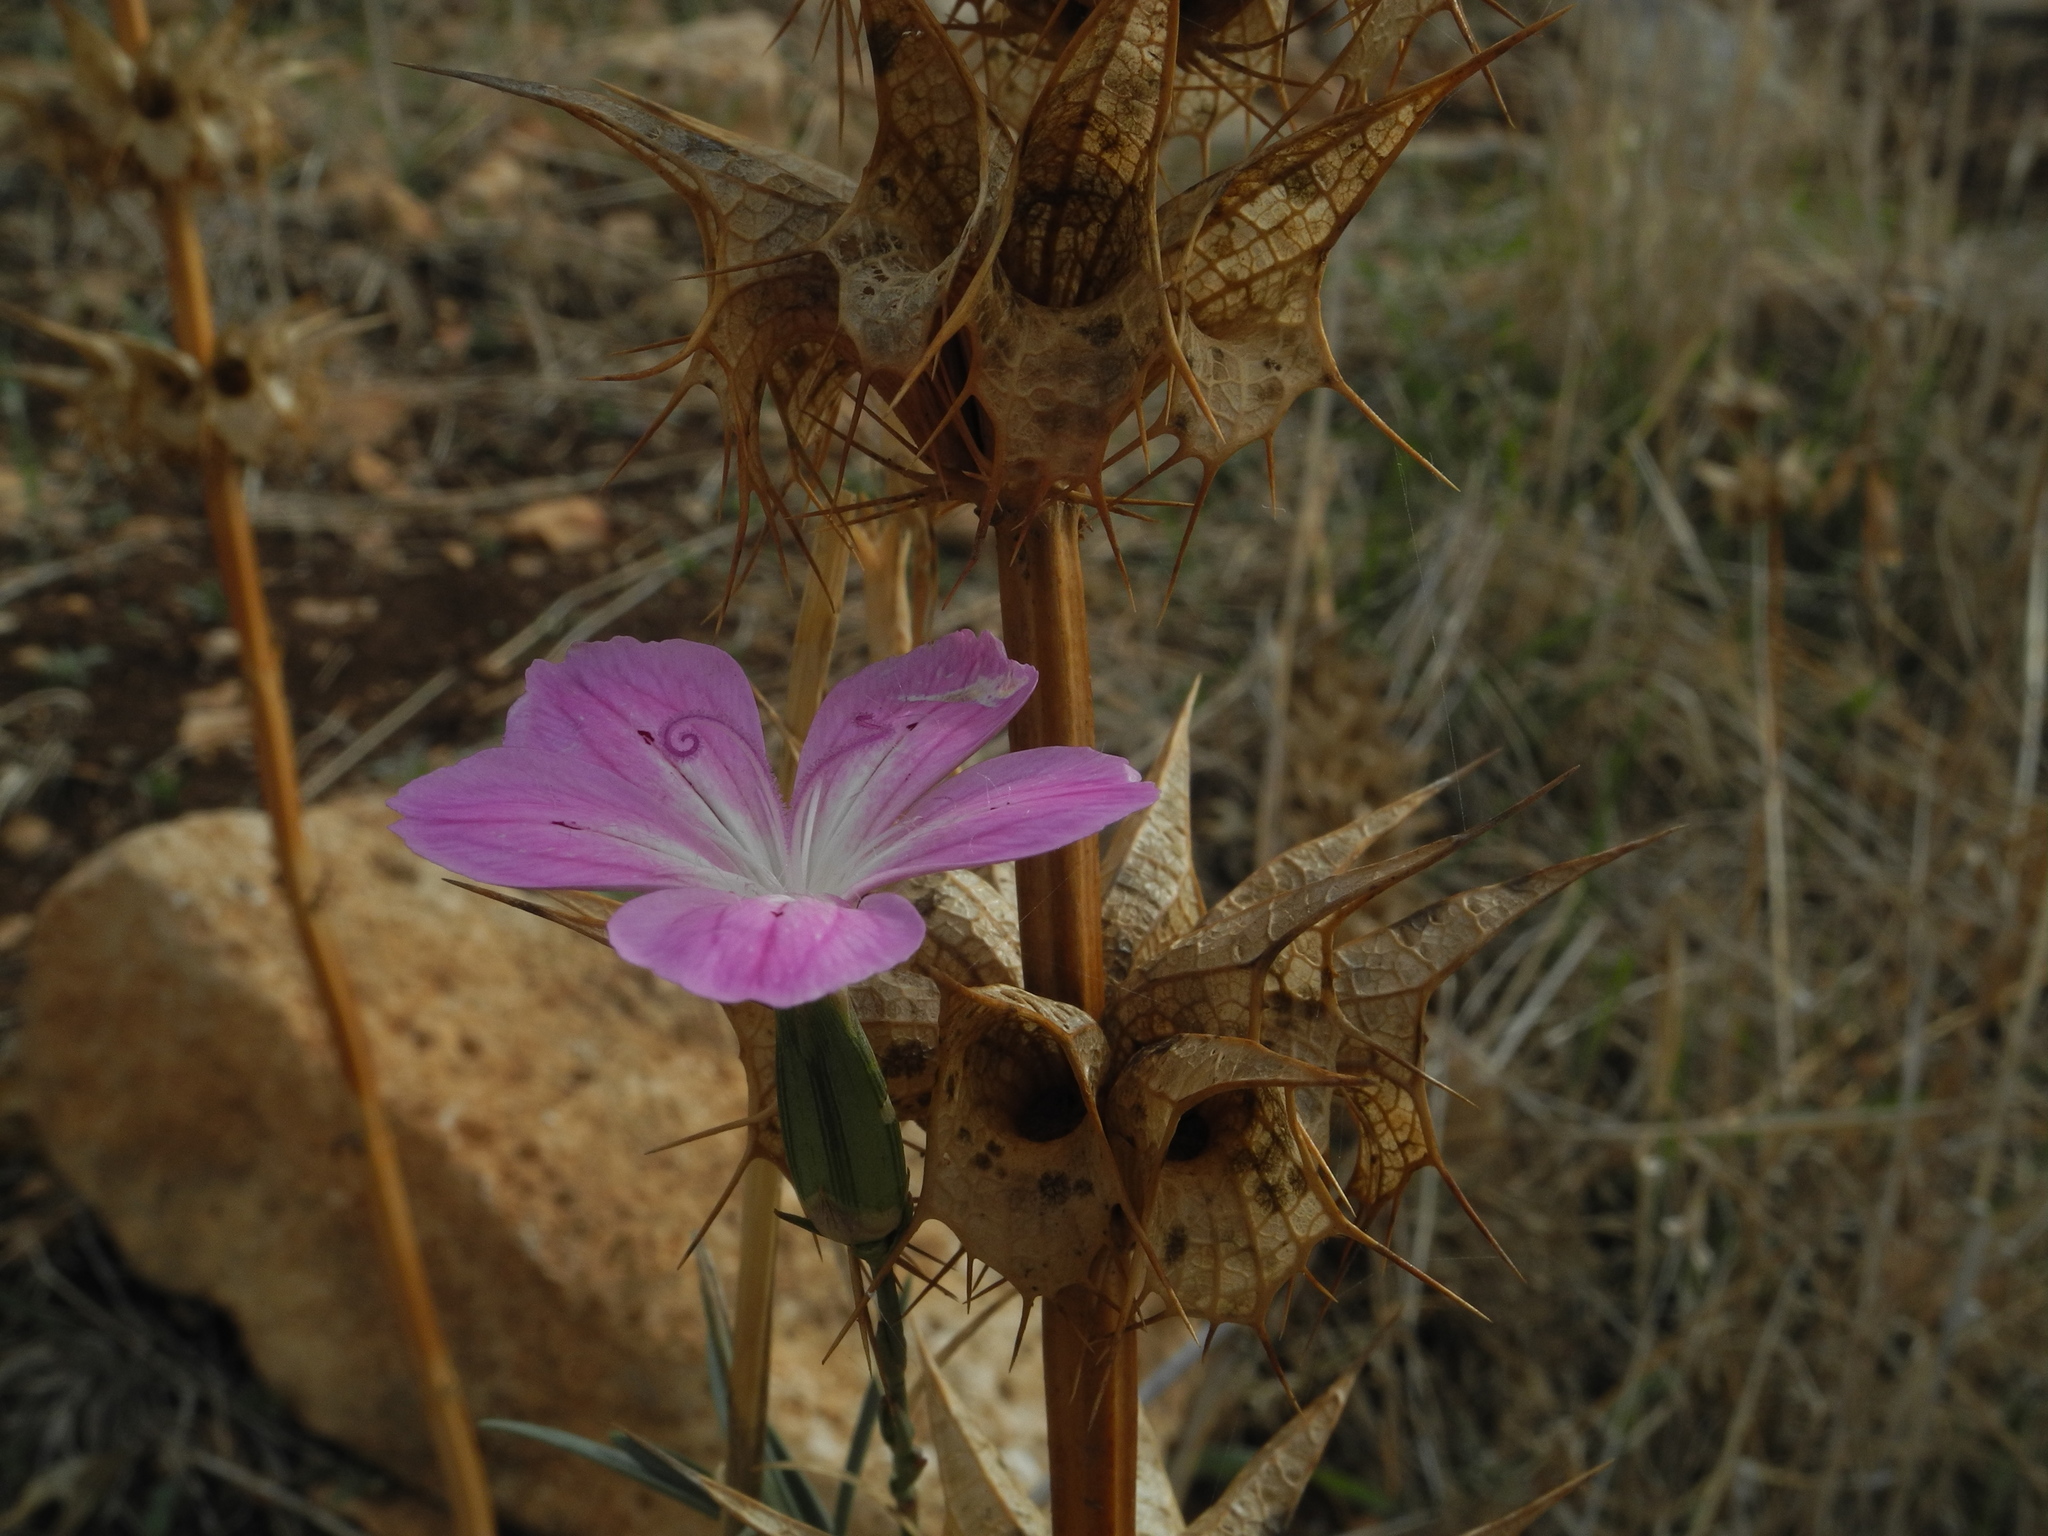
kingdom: Plantae
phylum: Tracheophyta
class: Magnoliopsida
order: Caryophyllales
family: Caryophyllaceae
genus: Dianthus
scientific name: Dianthus strictus
